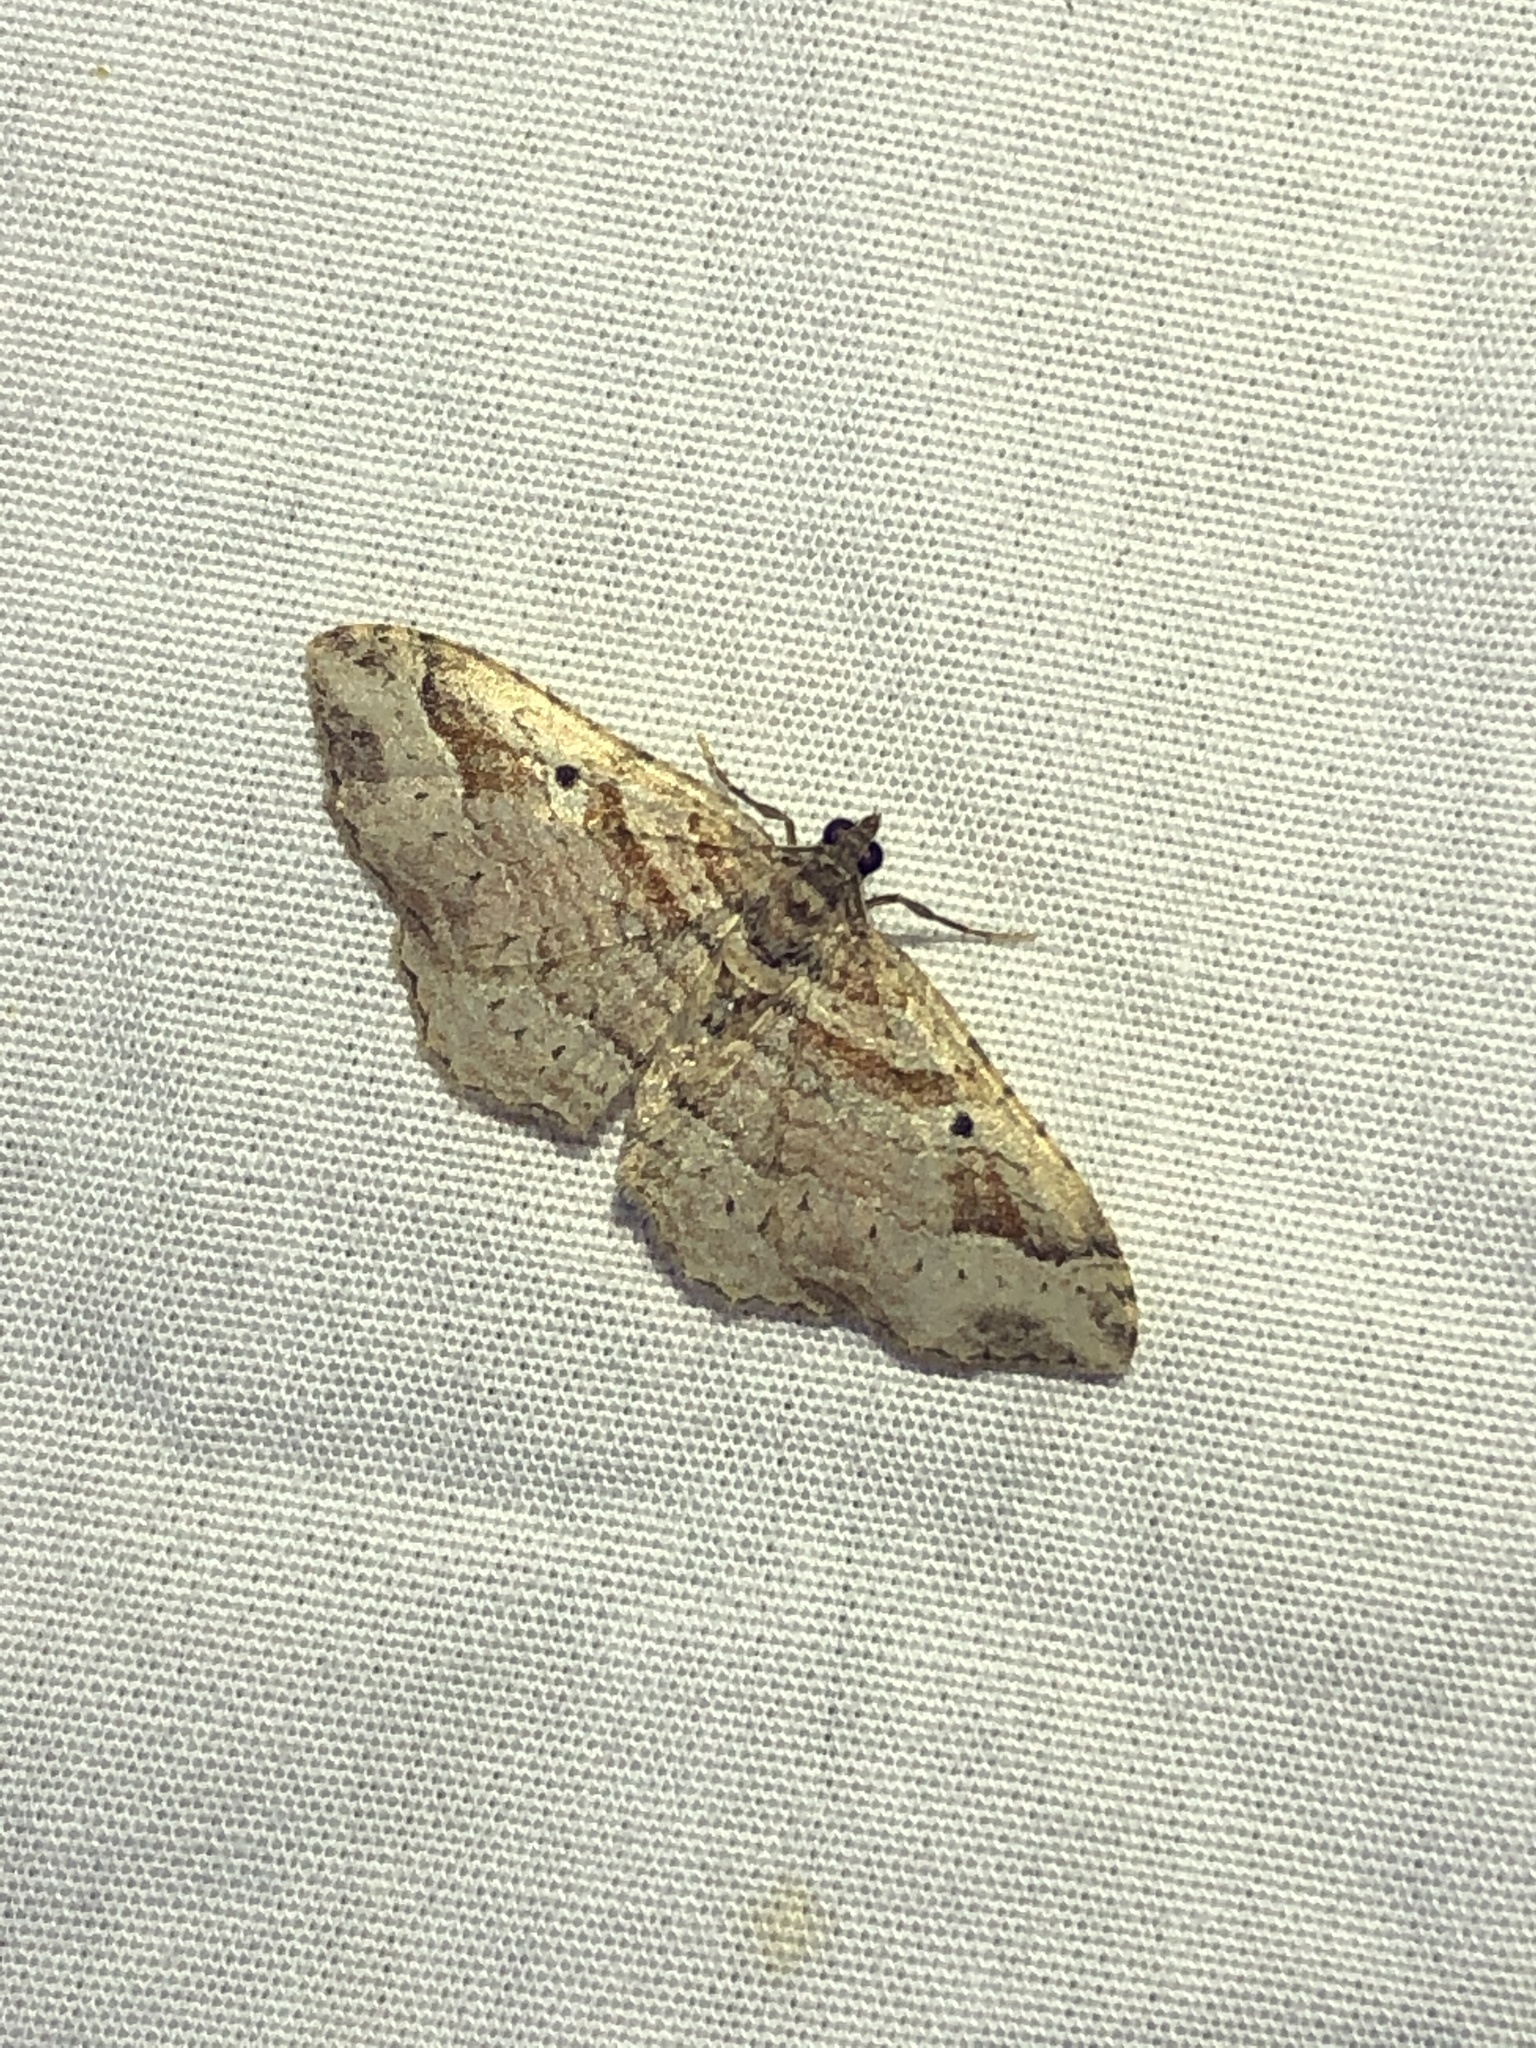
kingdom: Animalia
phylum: Arthropoda
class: Insecta
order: Lepidoptera
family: Geometridae
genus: Costaconvexa
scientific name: Costaconvexa centrostrigaria
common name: Bent-line carpet
